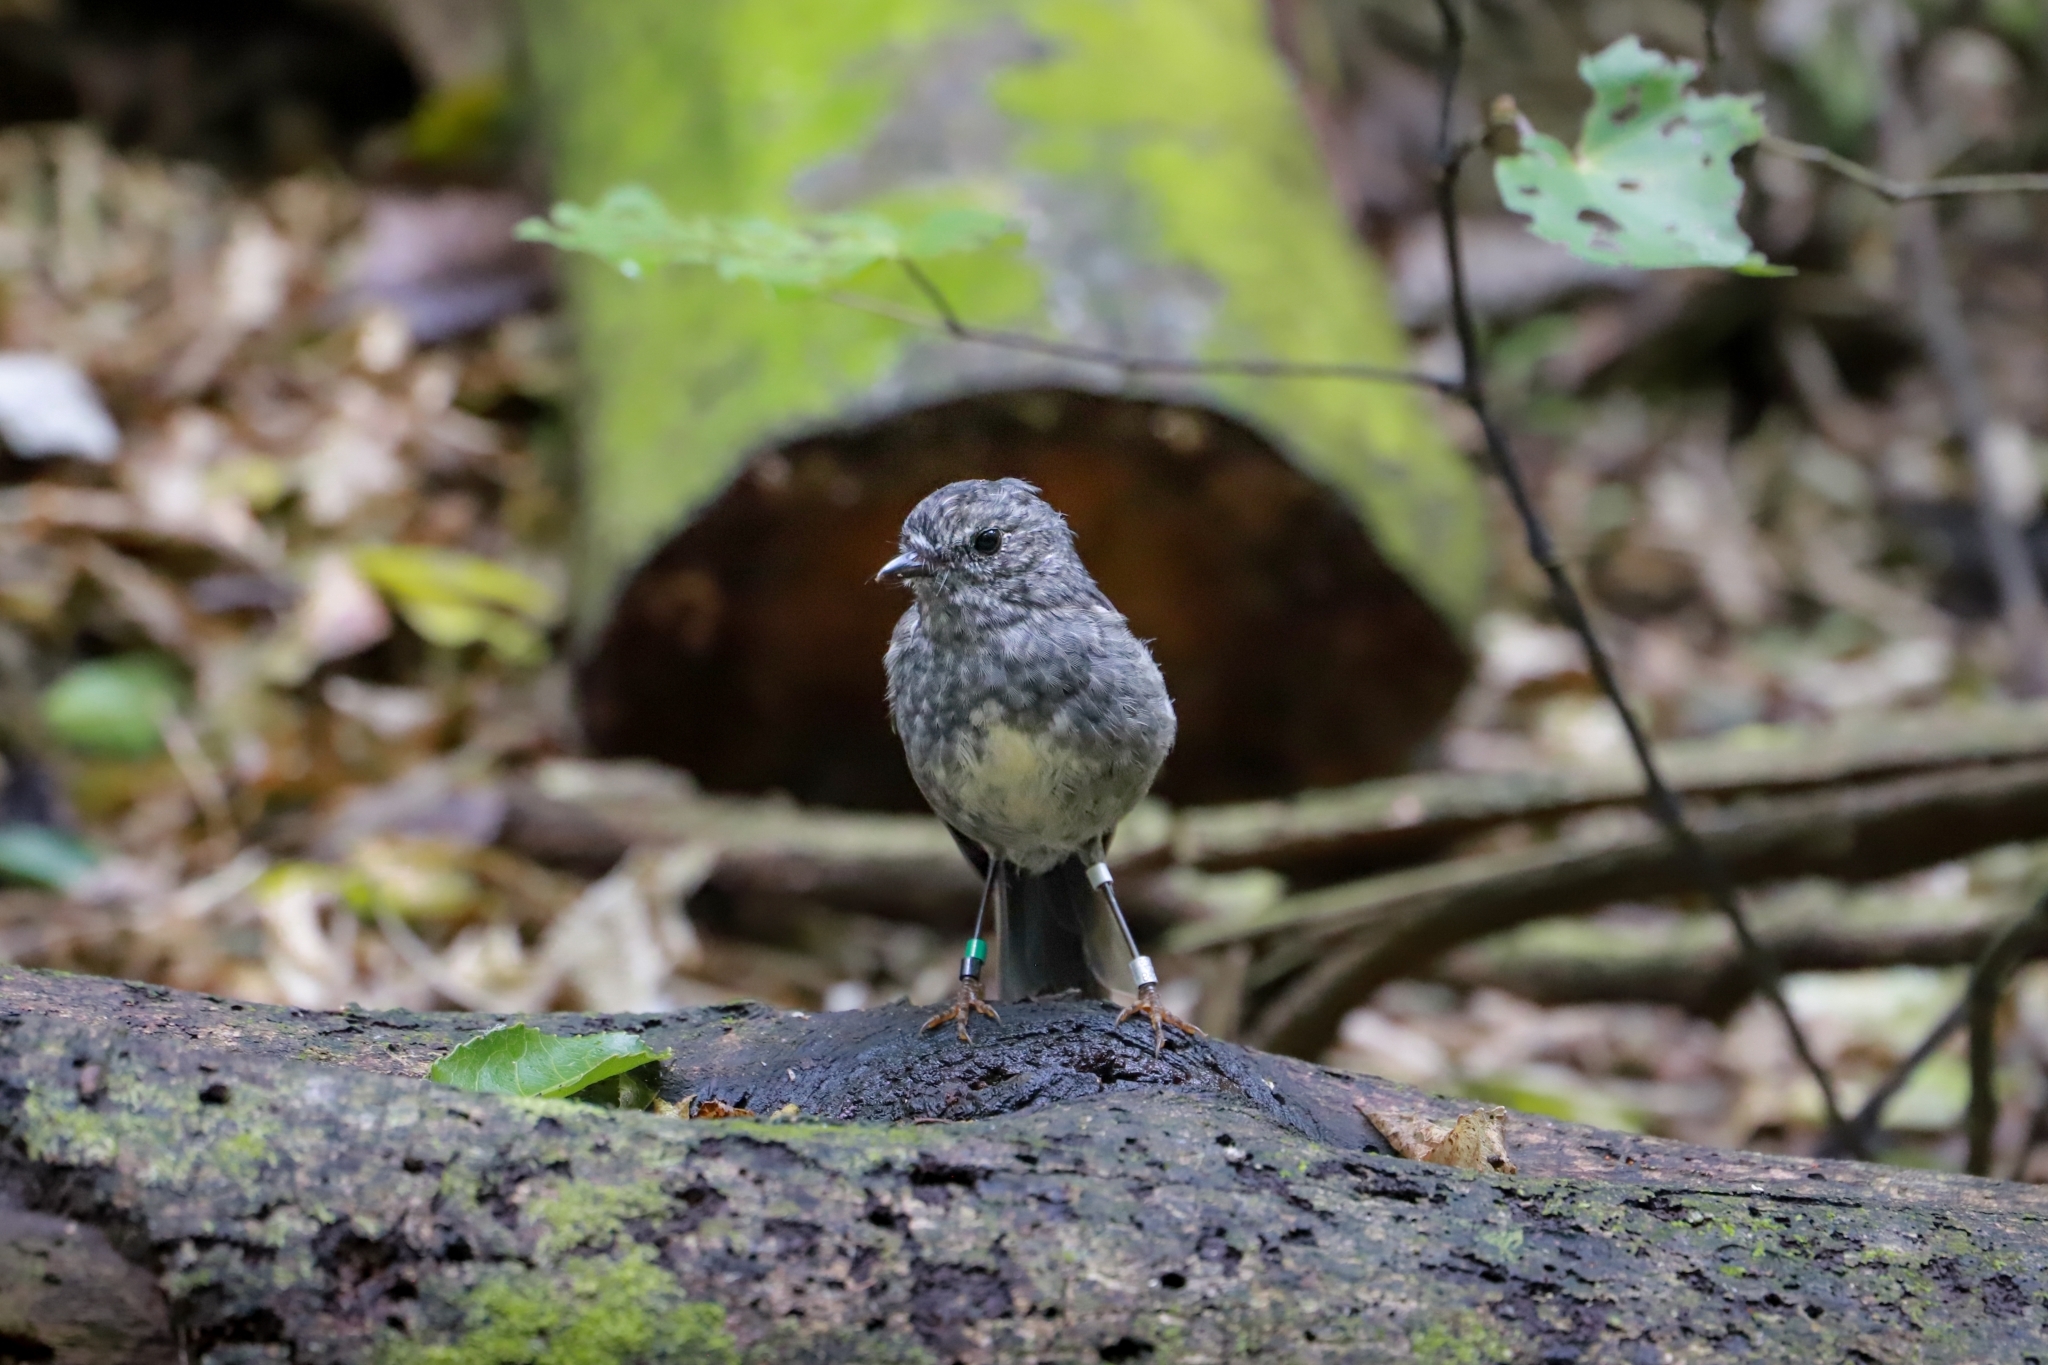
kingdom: Animalia
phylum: Chordata
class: Aves
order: Passeriformes
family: Petroicidae
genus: Petroica
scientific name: Petroica australis
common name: New zealand robin
